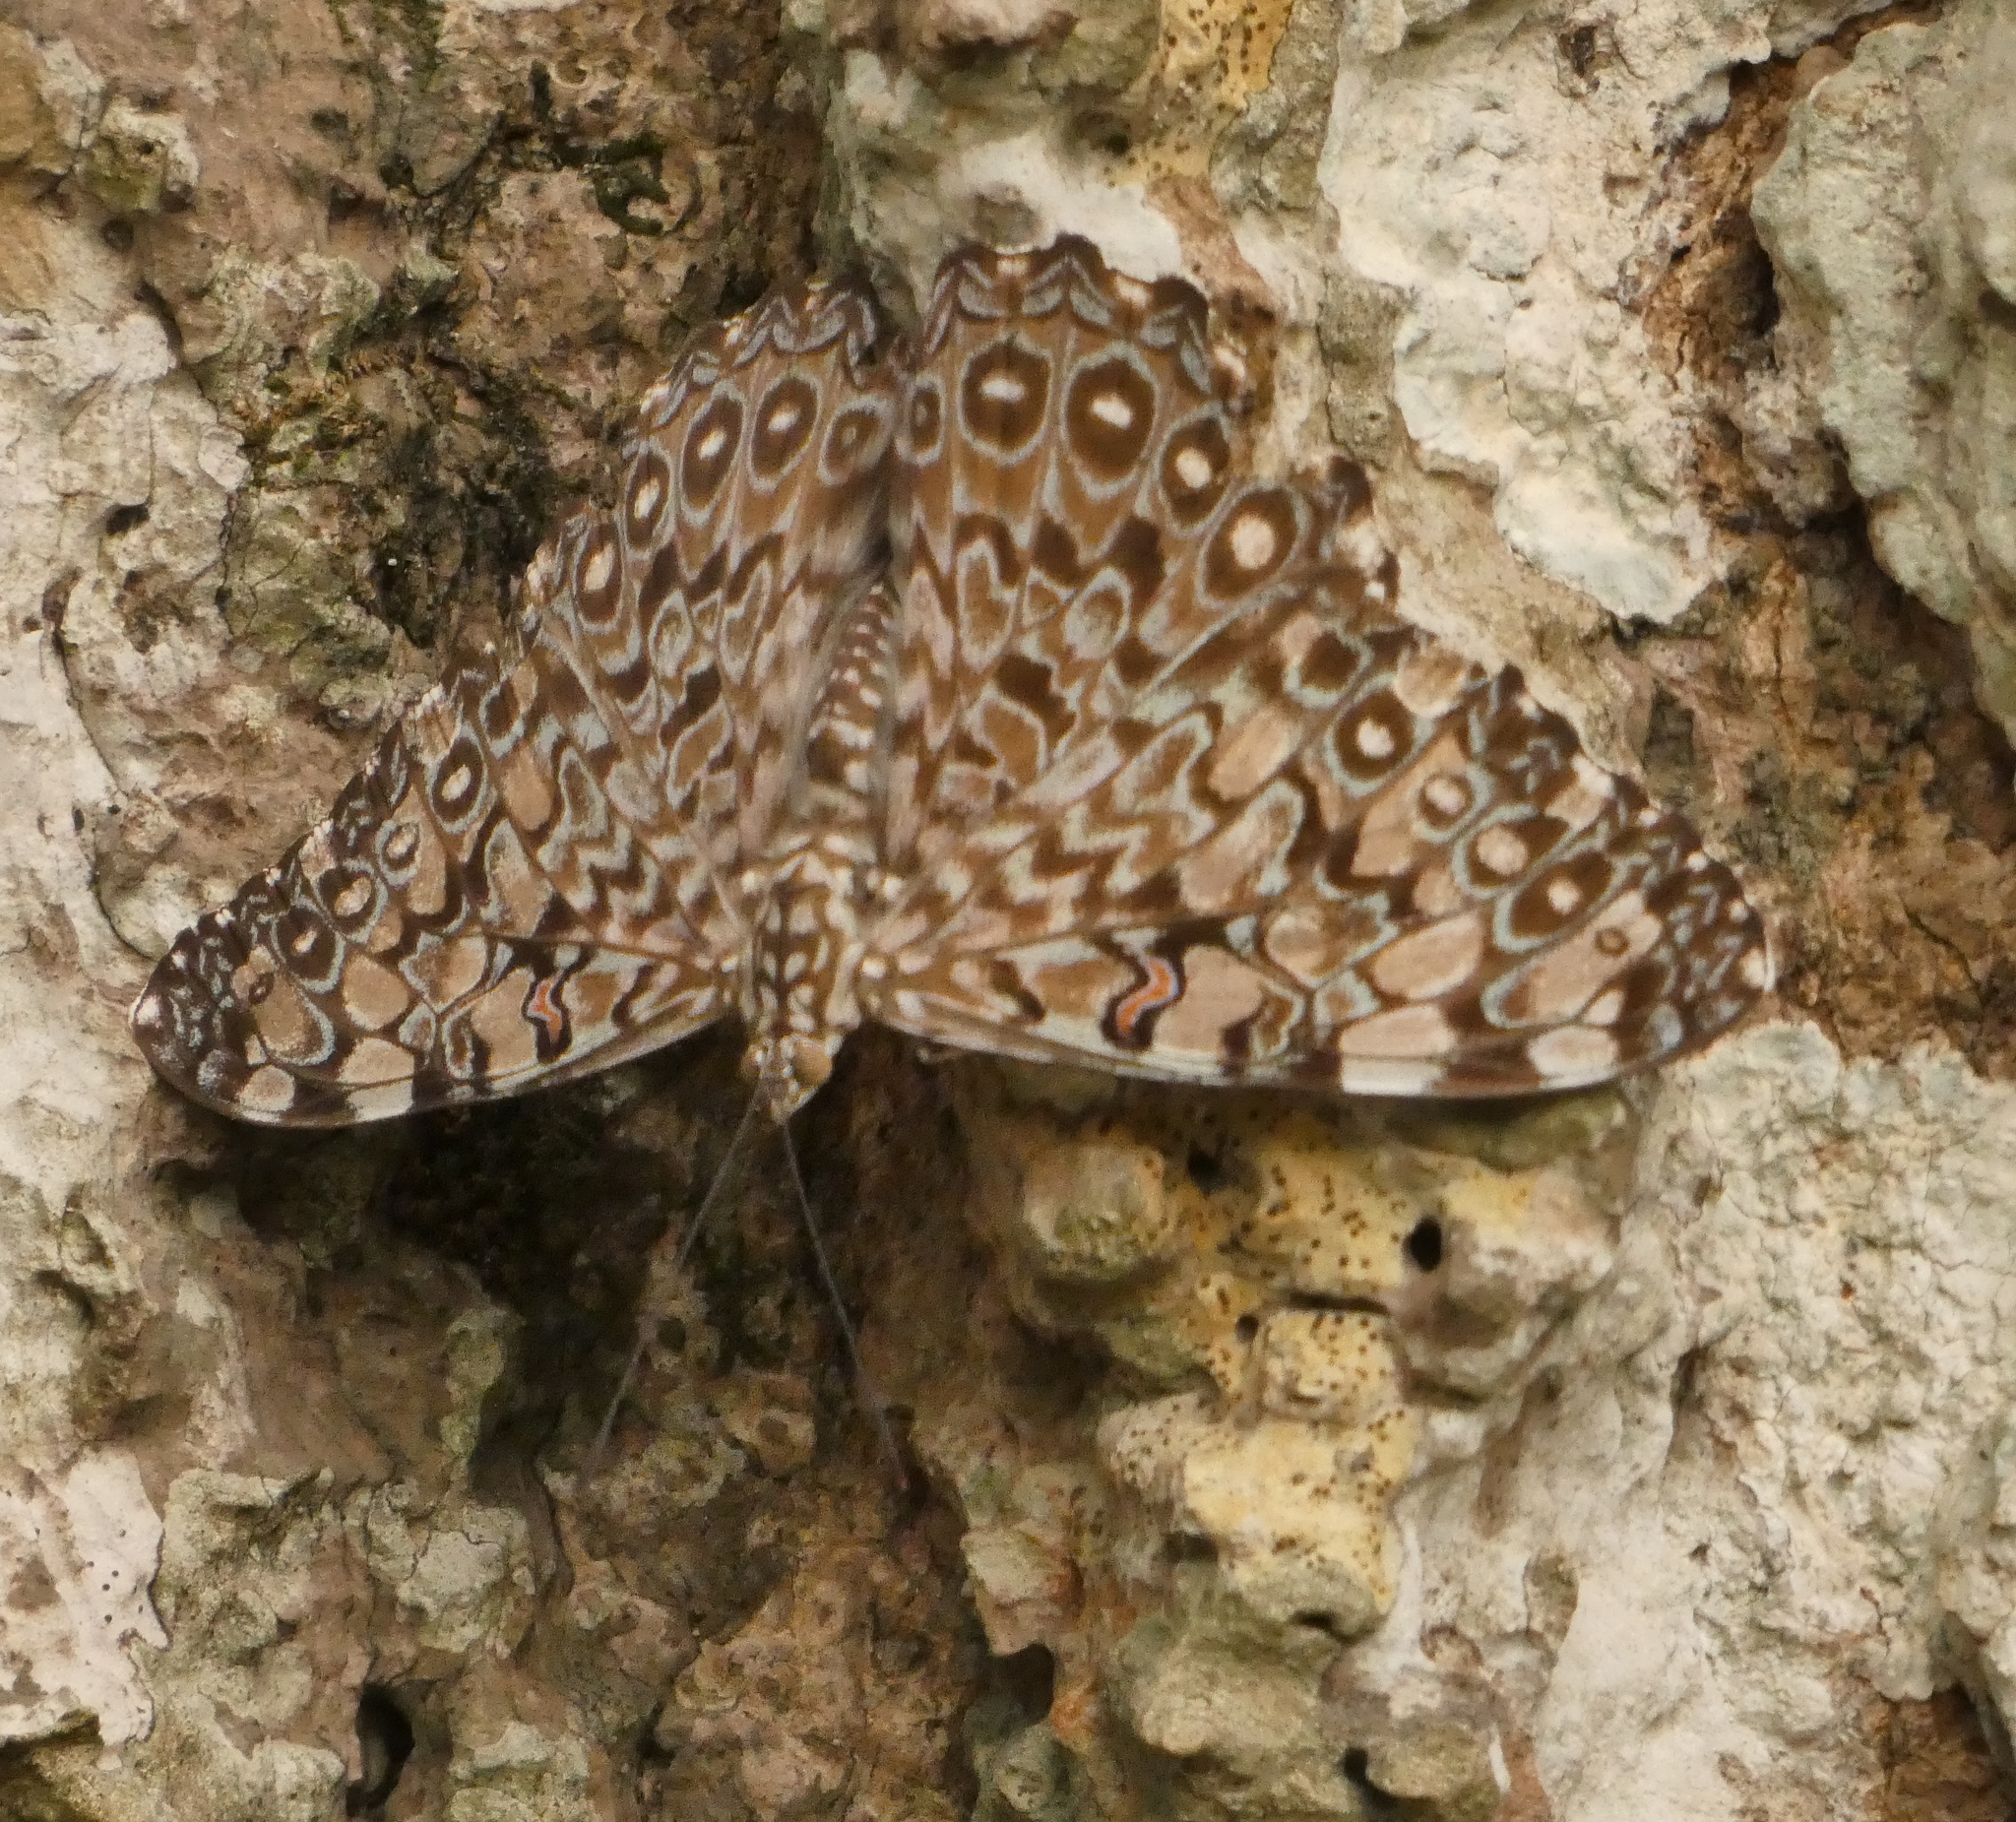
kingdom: Animalia
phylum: Arthropoda
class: Insecta
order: Lepidoptera
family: Nymphalidae
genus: Hamadryas
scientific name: Hamadryas feronia
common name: Variable cracker
